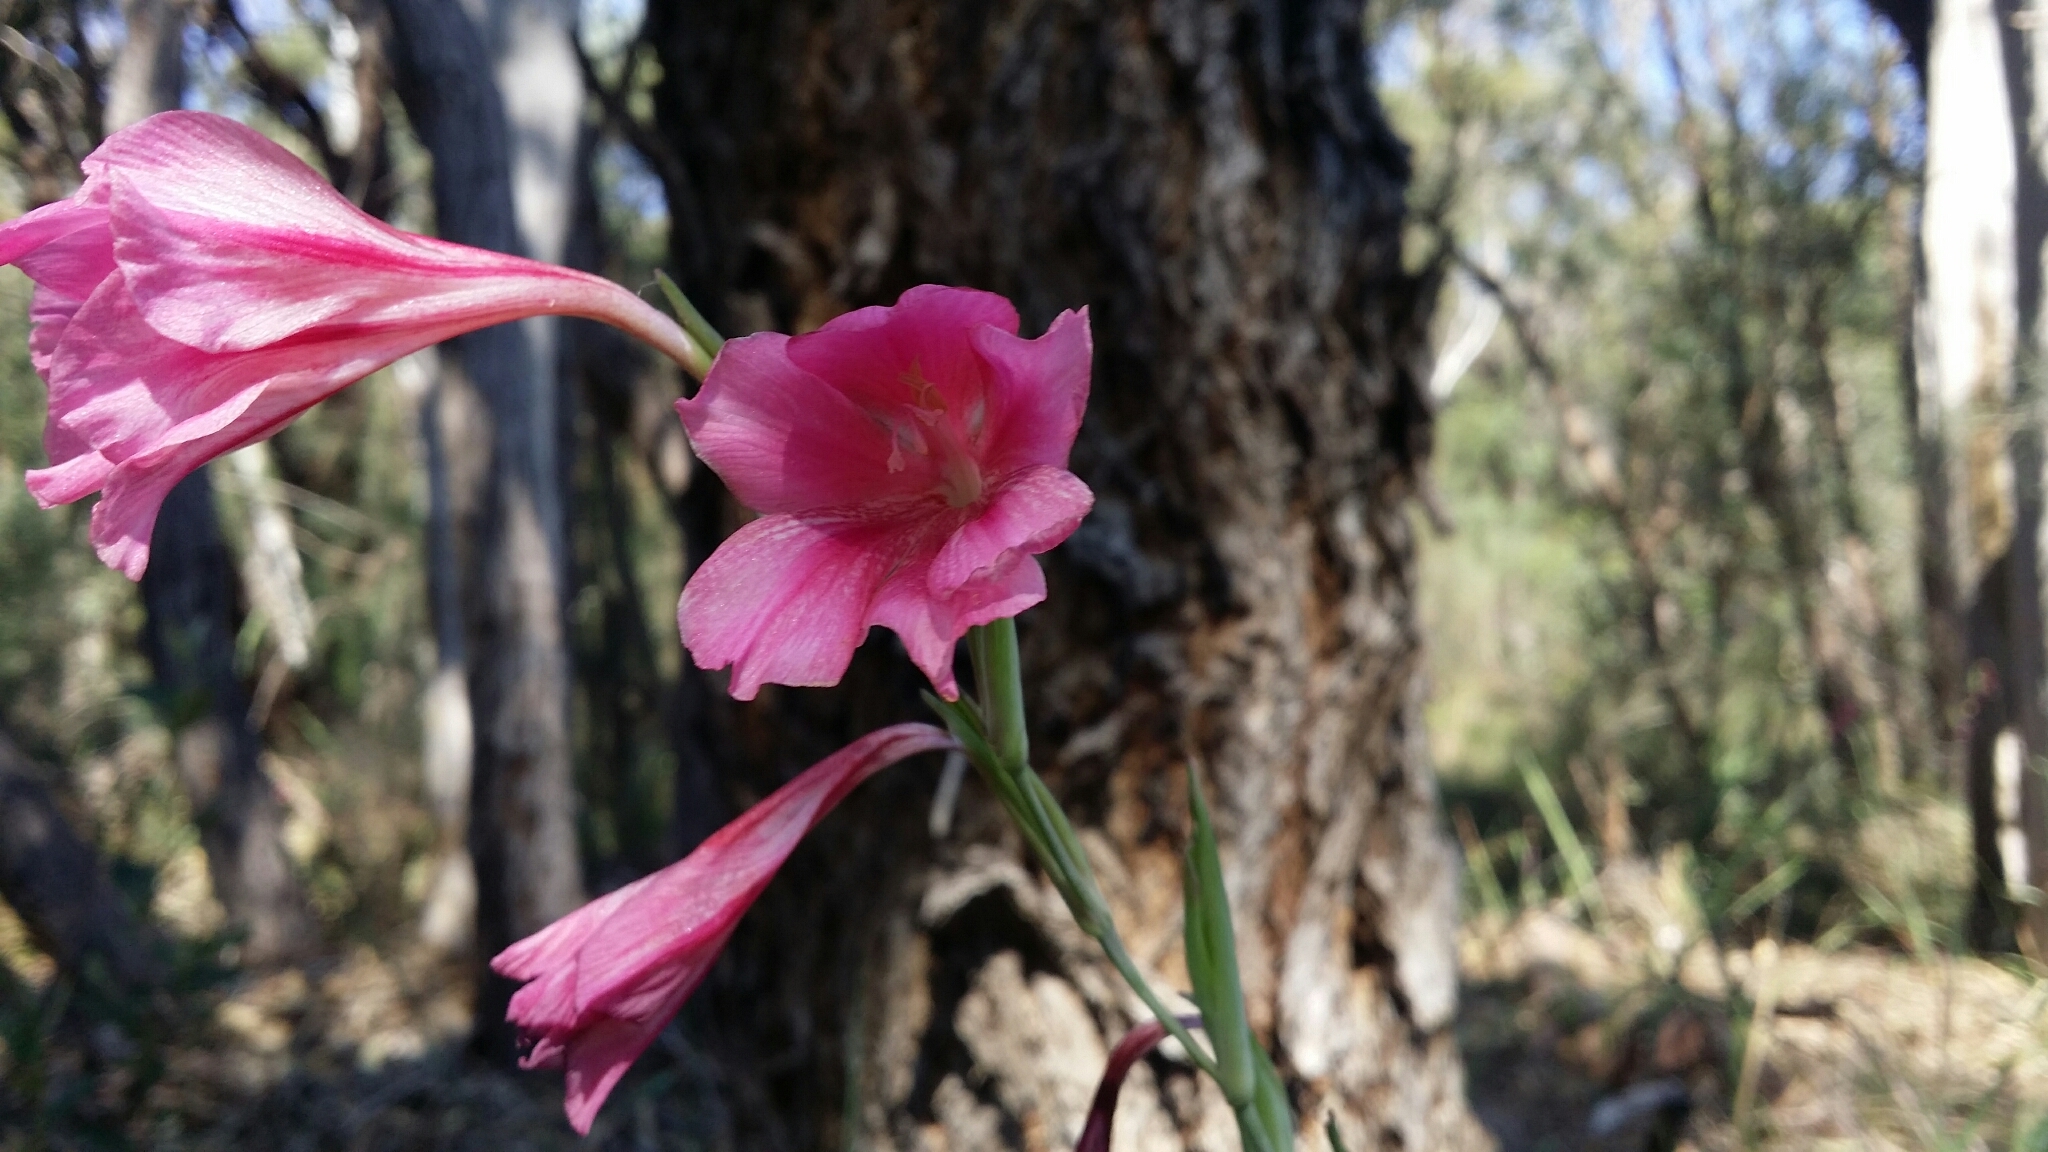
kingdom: Plantae
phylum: Tracheophyta
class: Liliopsida
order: Asparagales
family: Iridaceae
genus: Gladiolus
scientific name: Gladiolus caryophyllaceus
